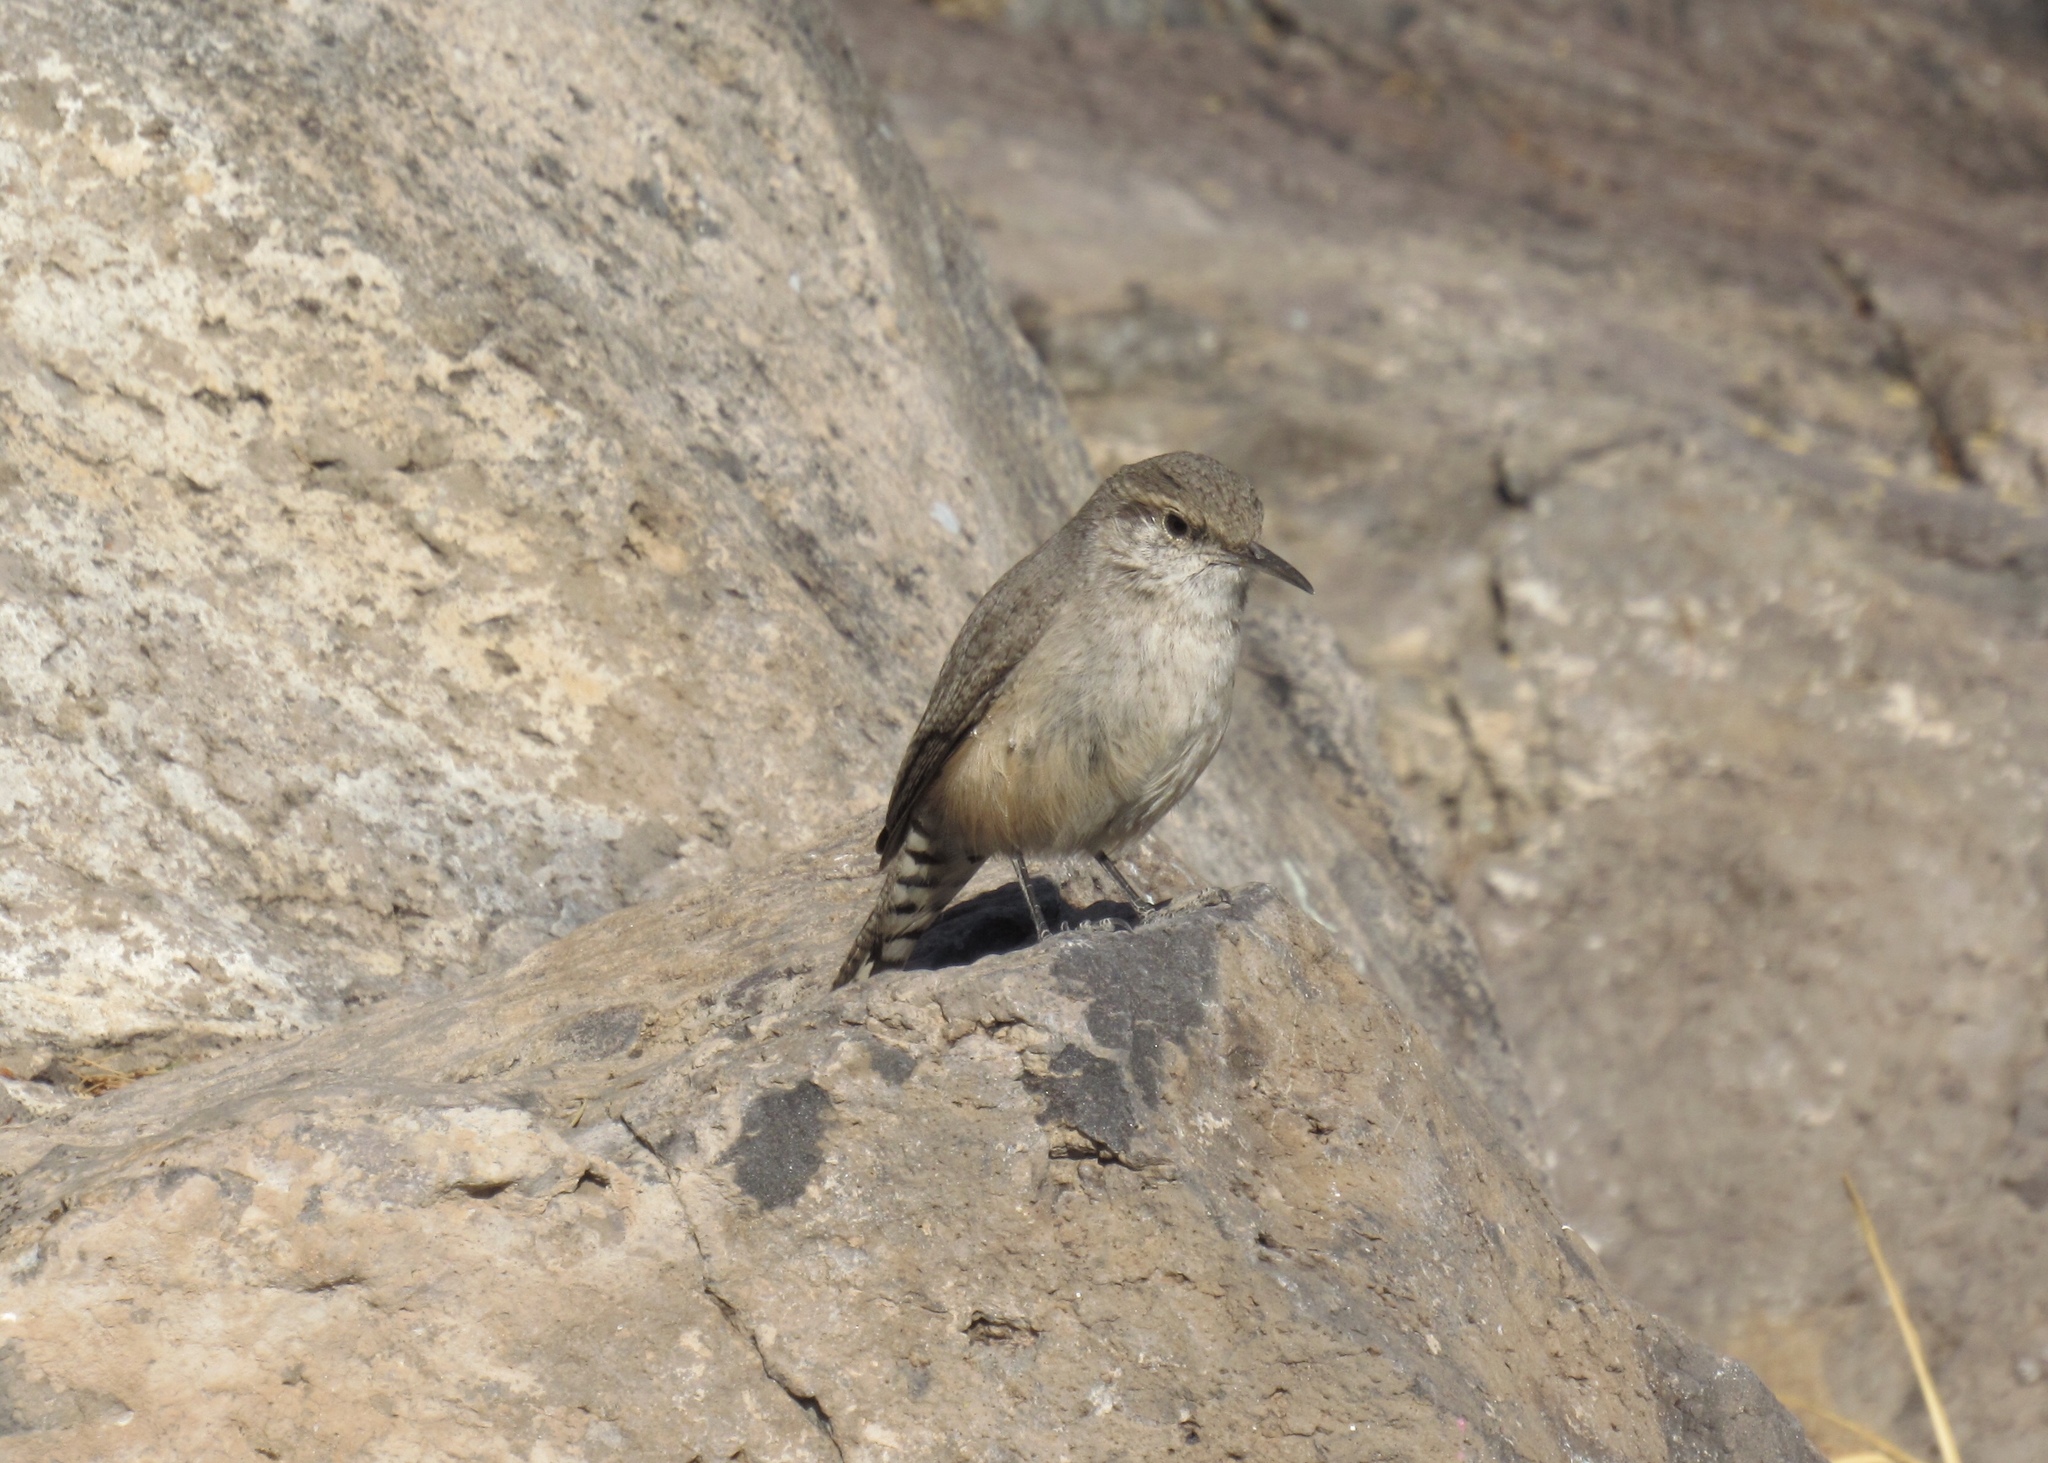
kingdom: Animalia
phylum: Chordata
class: Aves
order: Passeriformes
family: Troglodytidae
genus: Salpinctes
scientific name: Salpinctes obsoletus
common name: Rock wren
